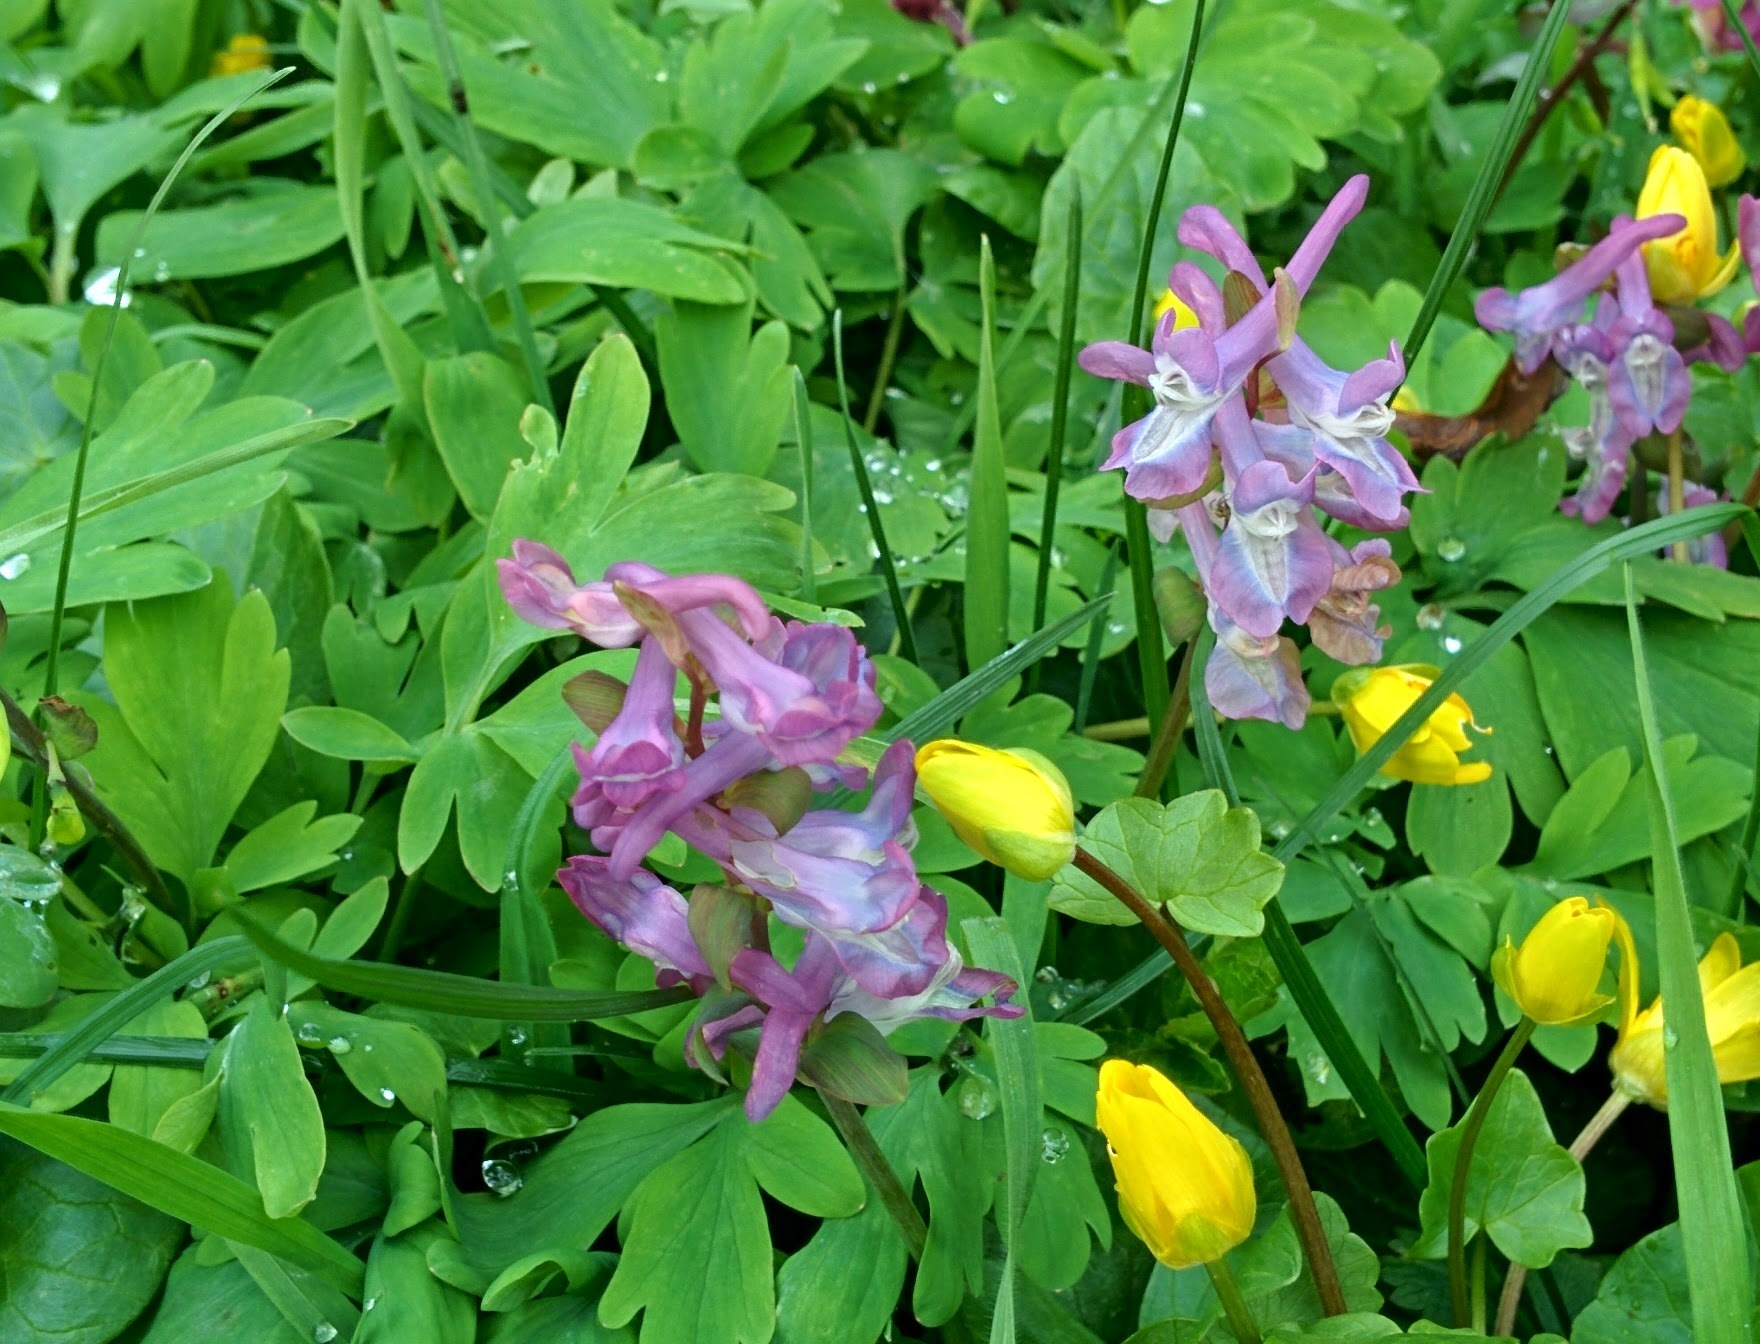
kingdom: Plantae
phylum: Tracheophyta
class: Magnoliopsida
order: Ranunculales
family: Papaveraceae
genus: Corydalis
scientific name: Corydalis cava
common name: Hollowroot
